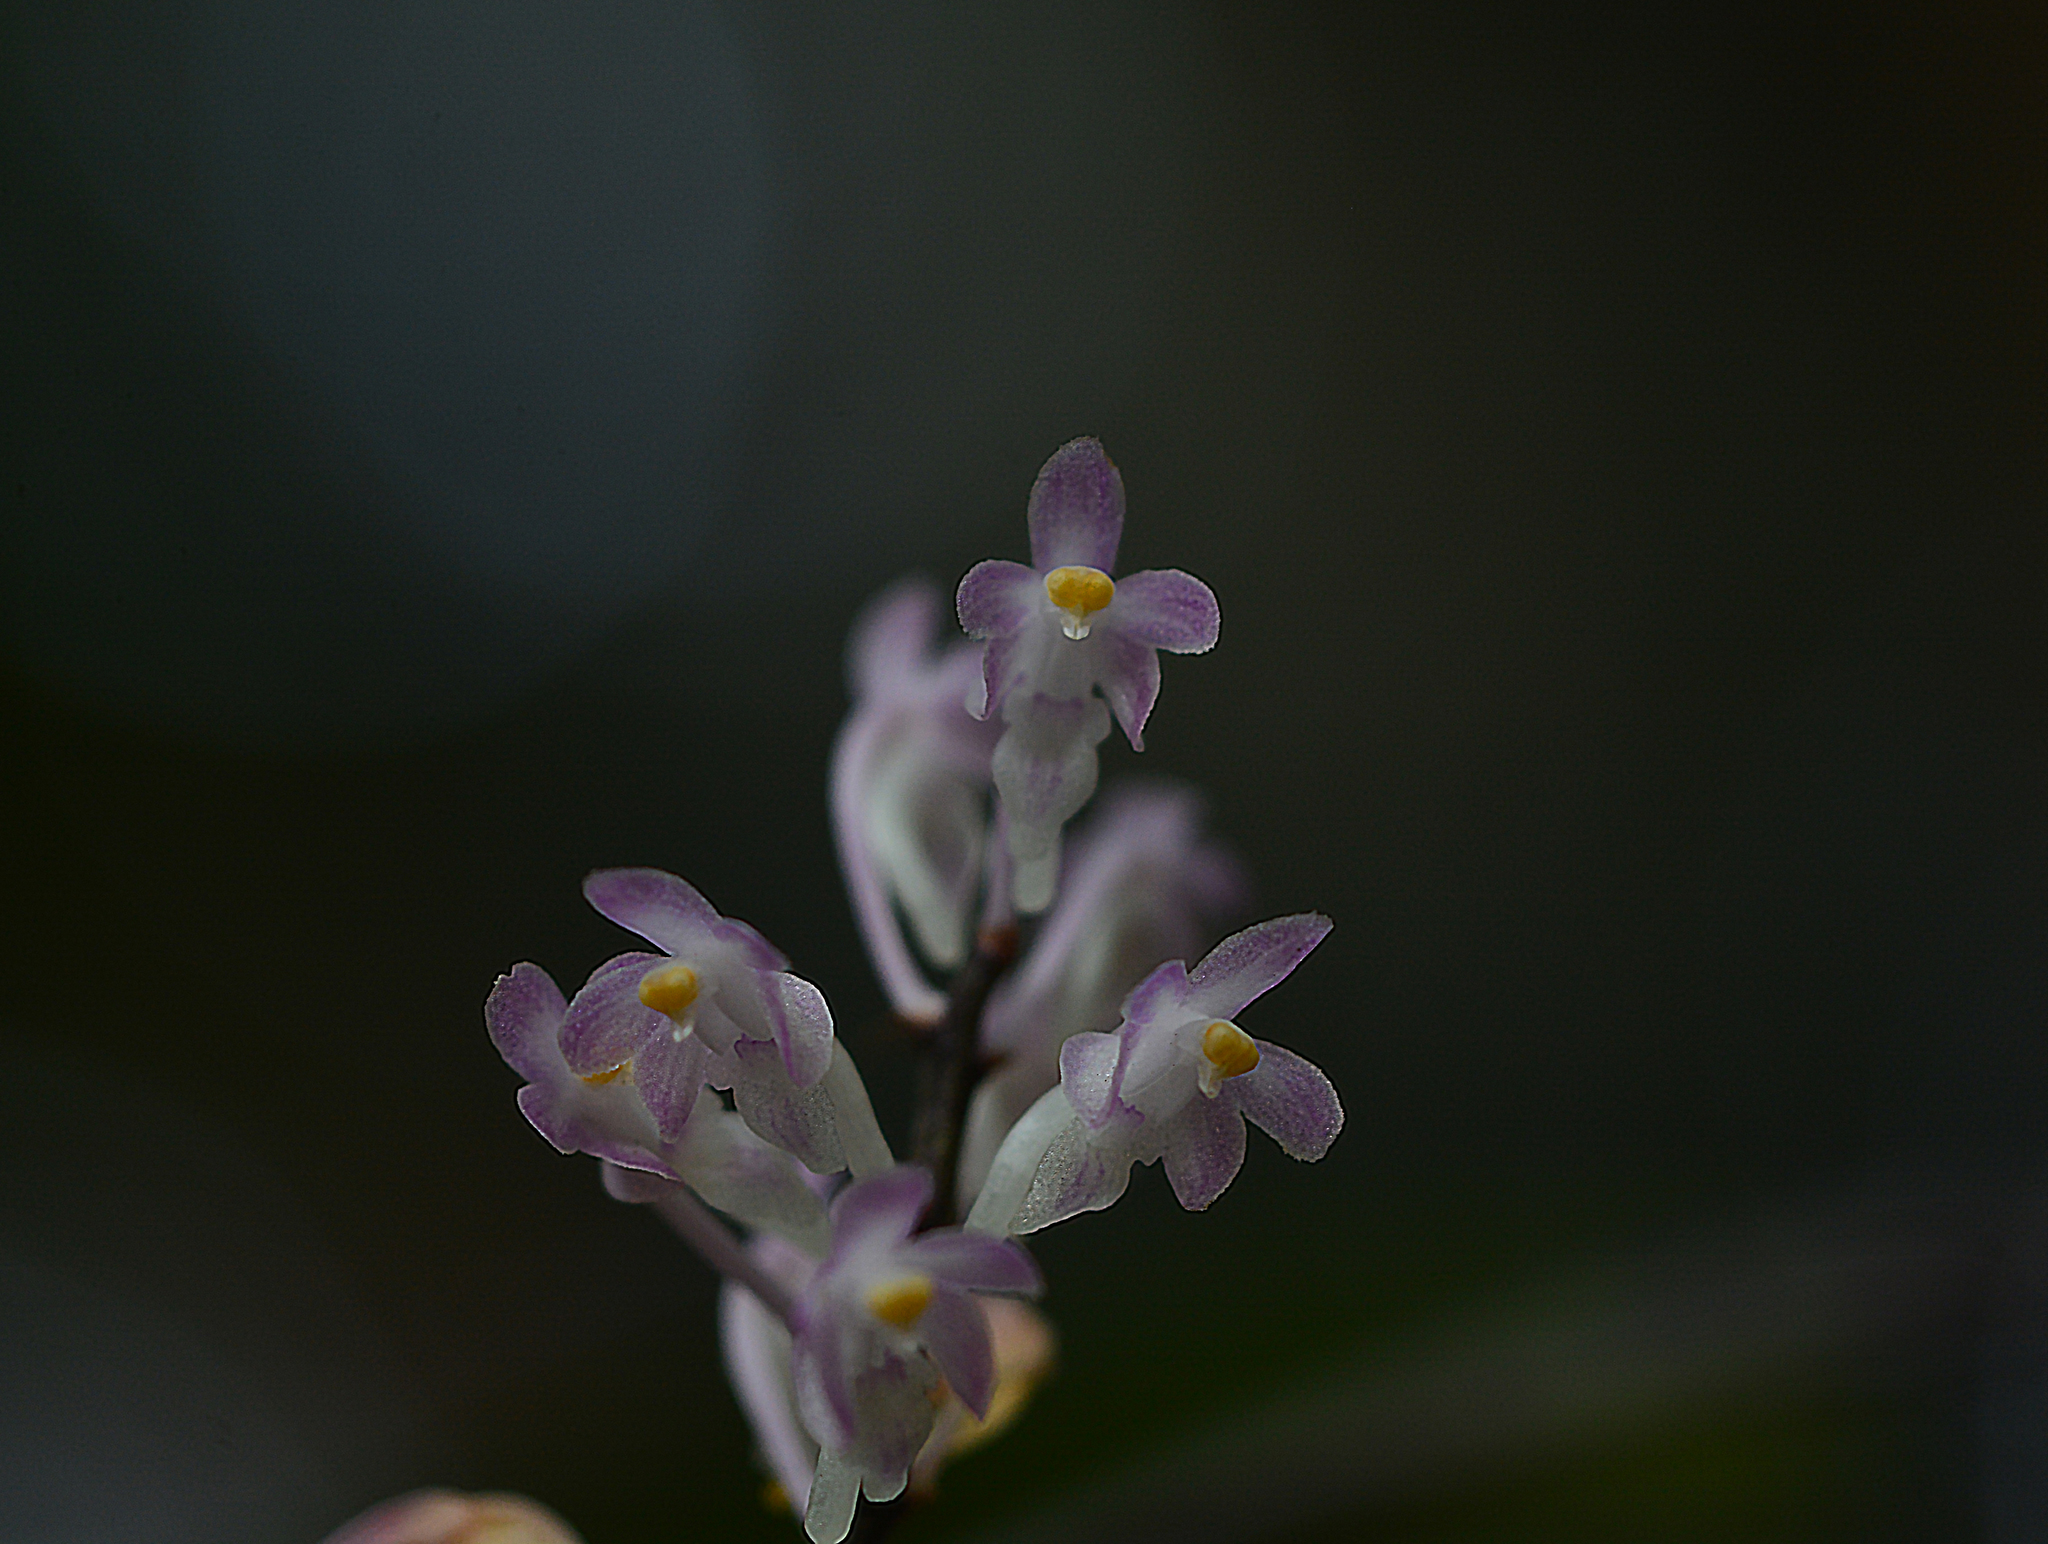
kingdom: Plantae
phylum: Tracheophyta
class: Liliopsida
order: Asparagales
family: Orchidaceae
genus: Aerides
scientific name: Aerides ringens
